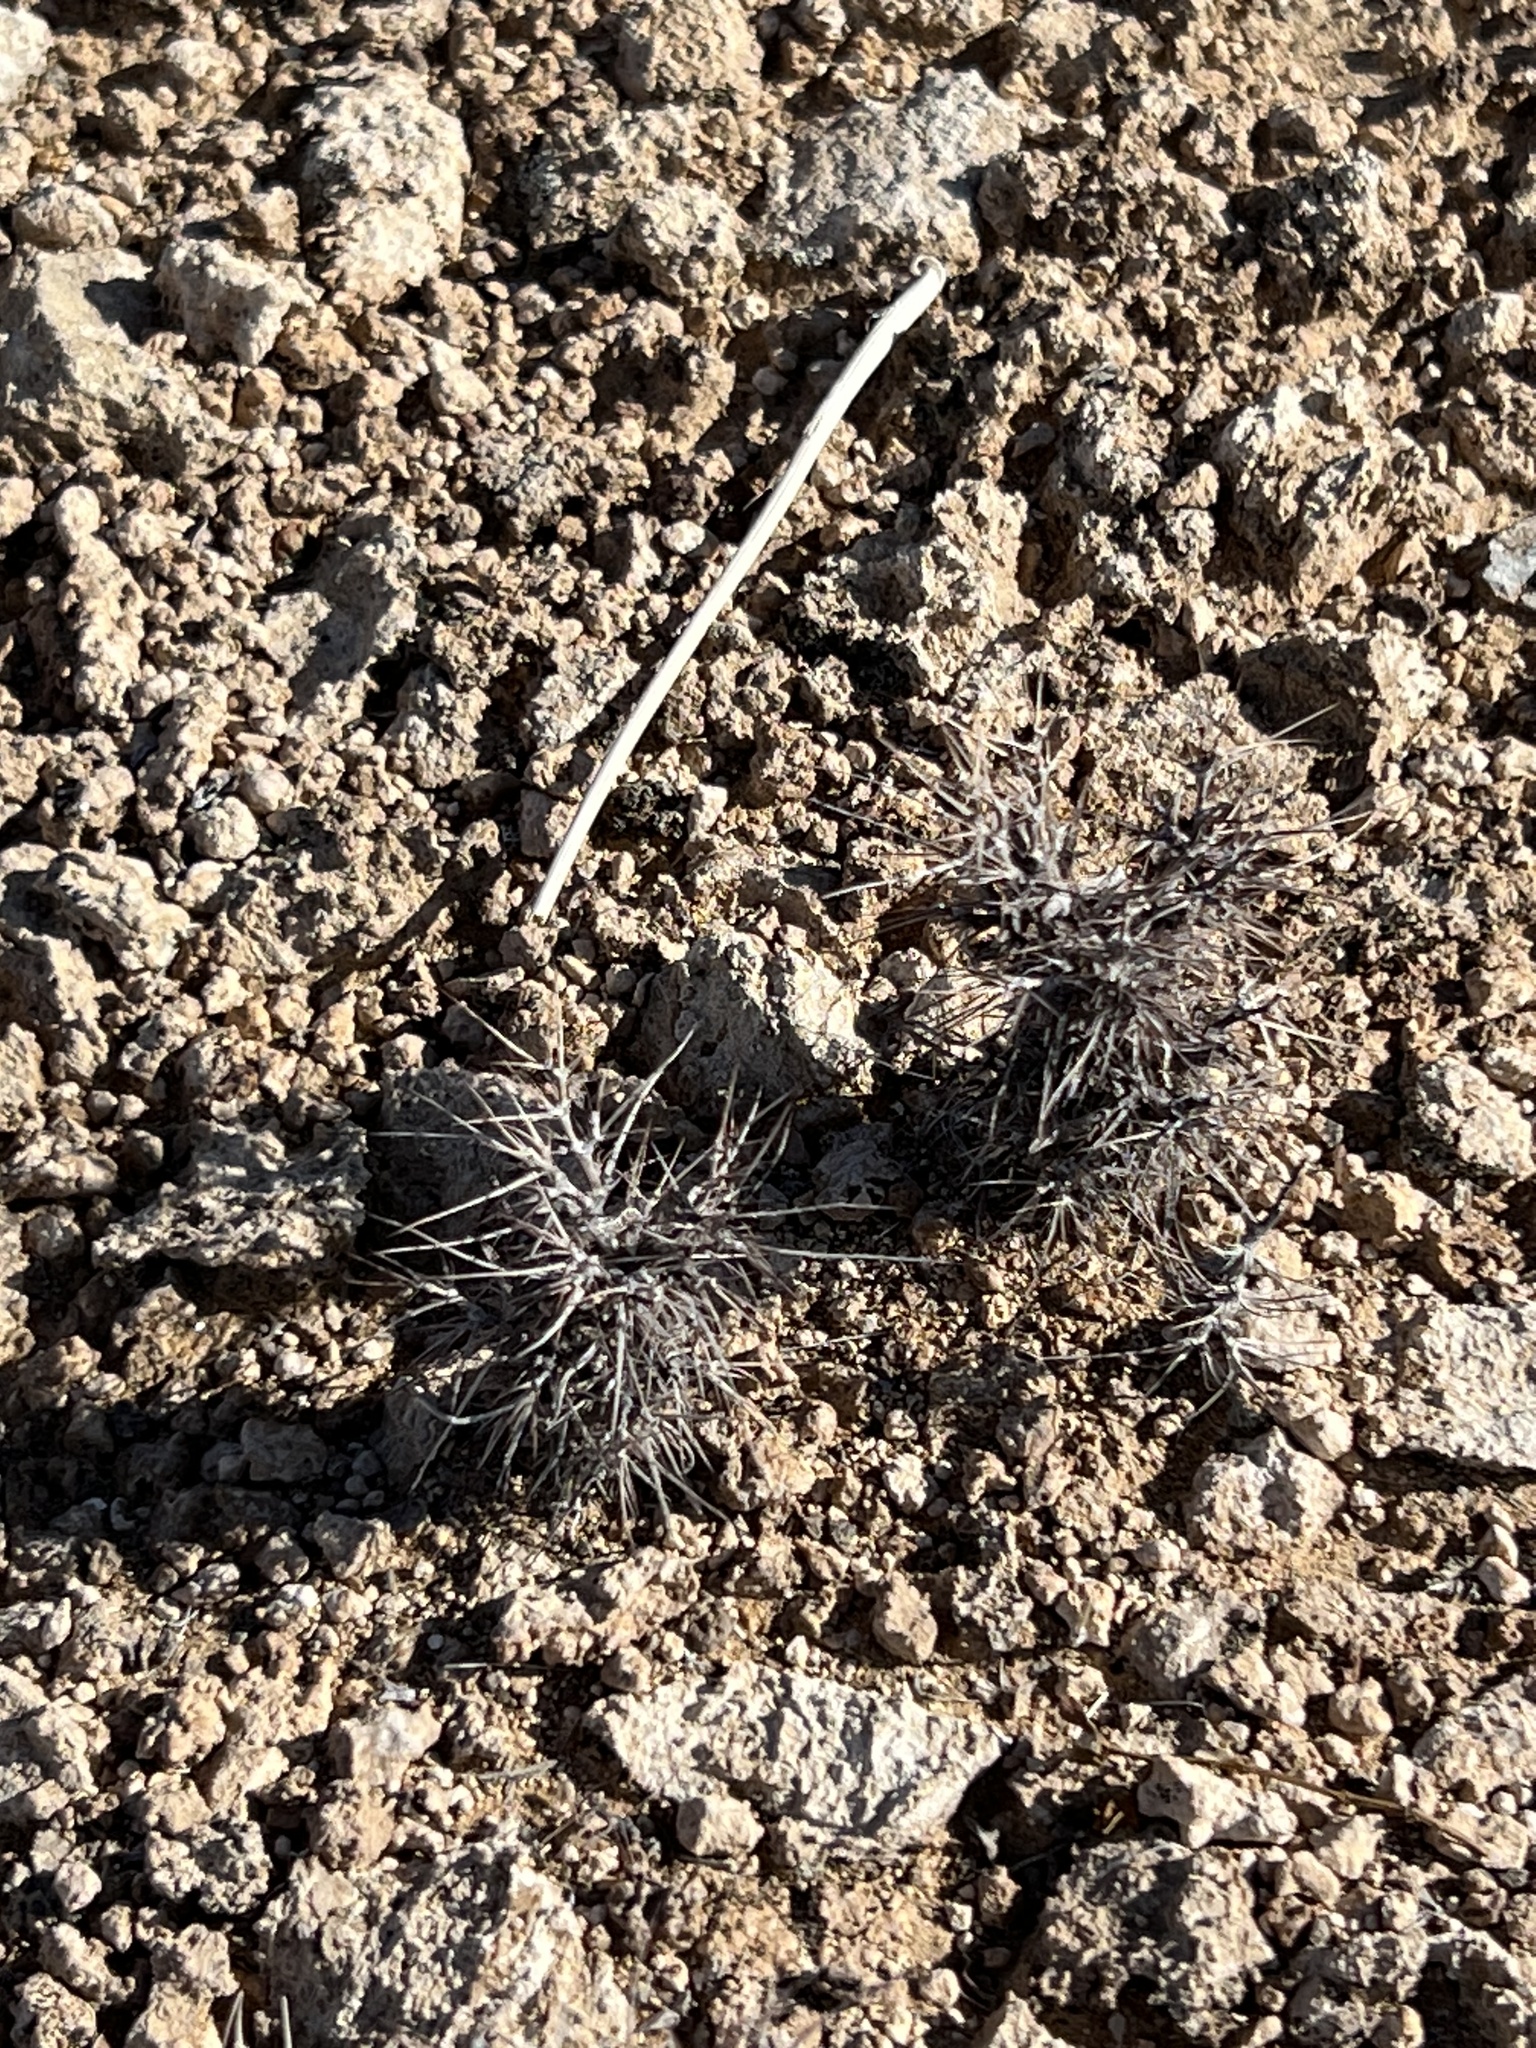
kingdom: Plantae
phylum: Tracheophyta
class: Magnoliopsida
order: Caryophyllales
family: Polygonaceae
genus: Chorizanthe
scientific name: Chorizanthe rigida
